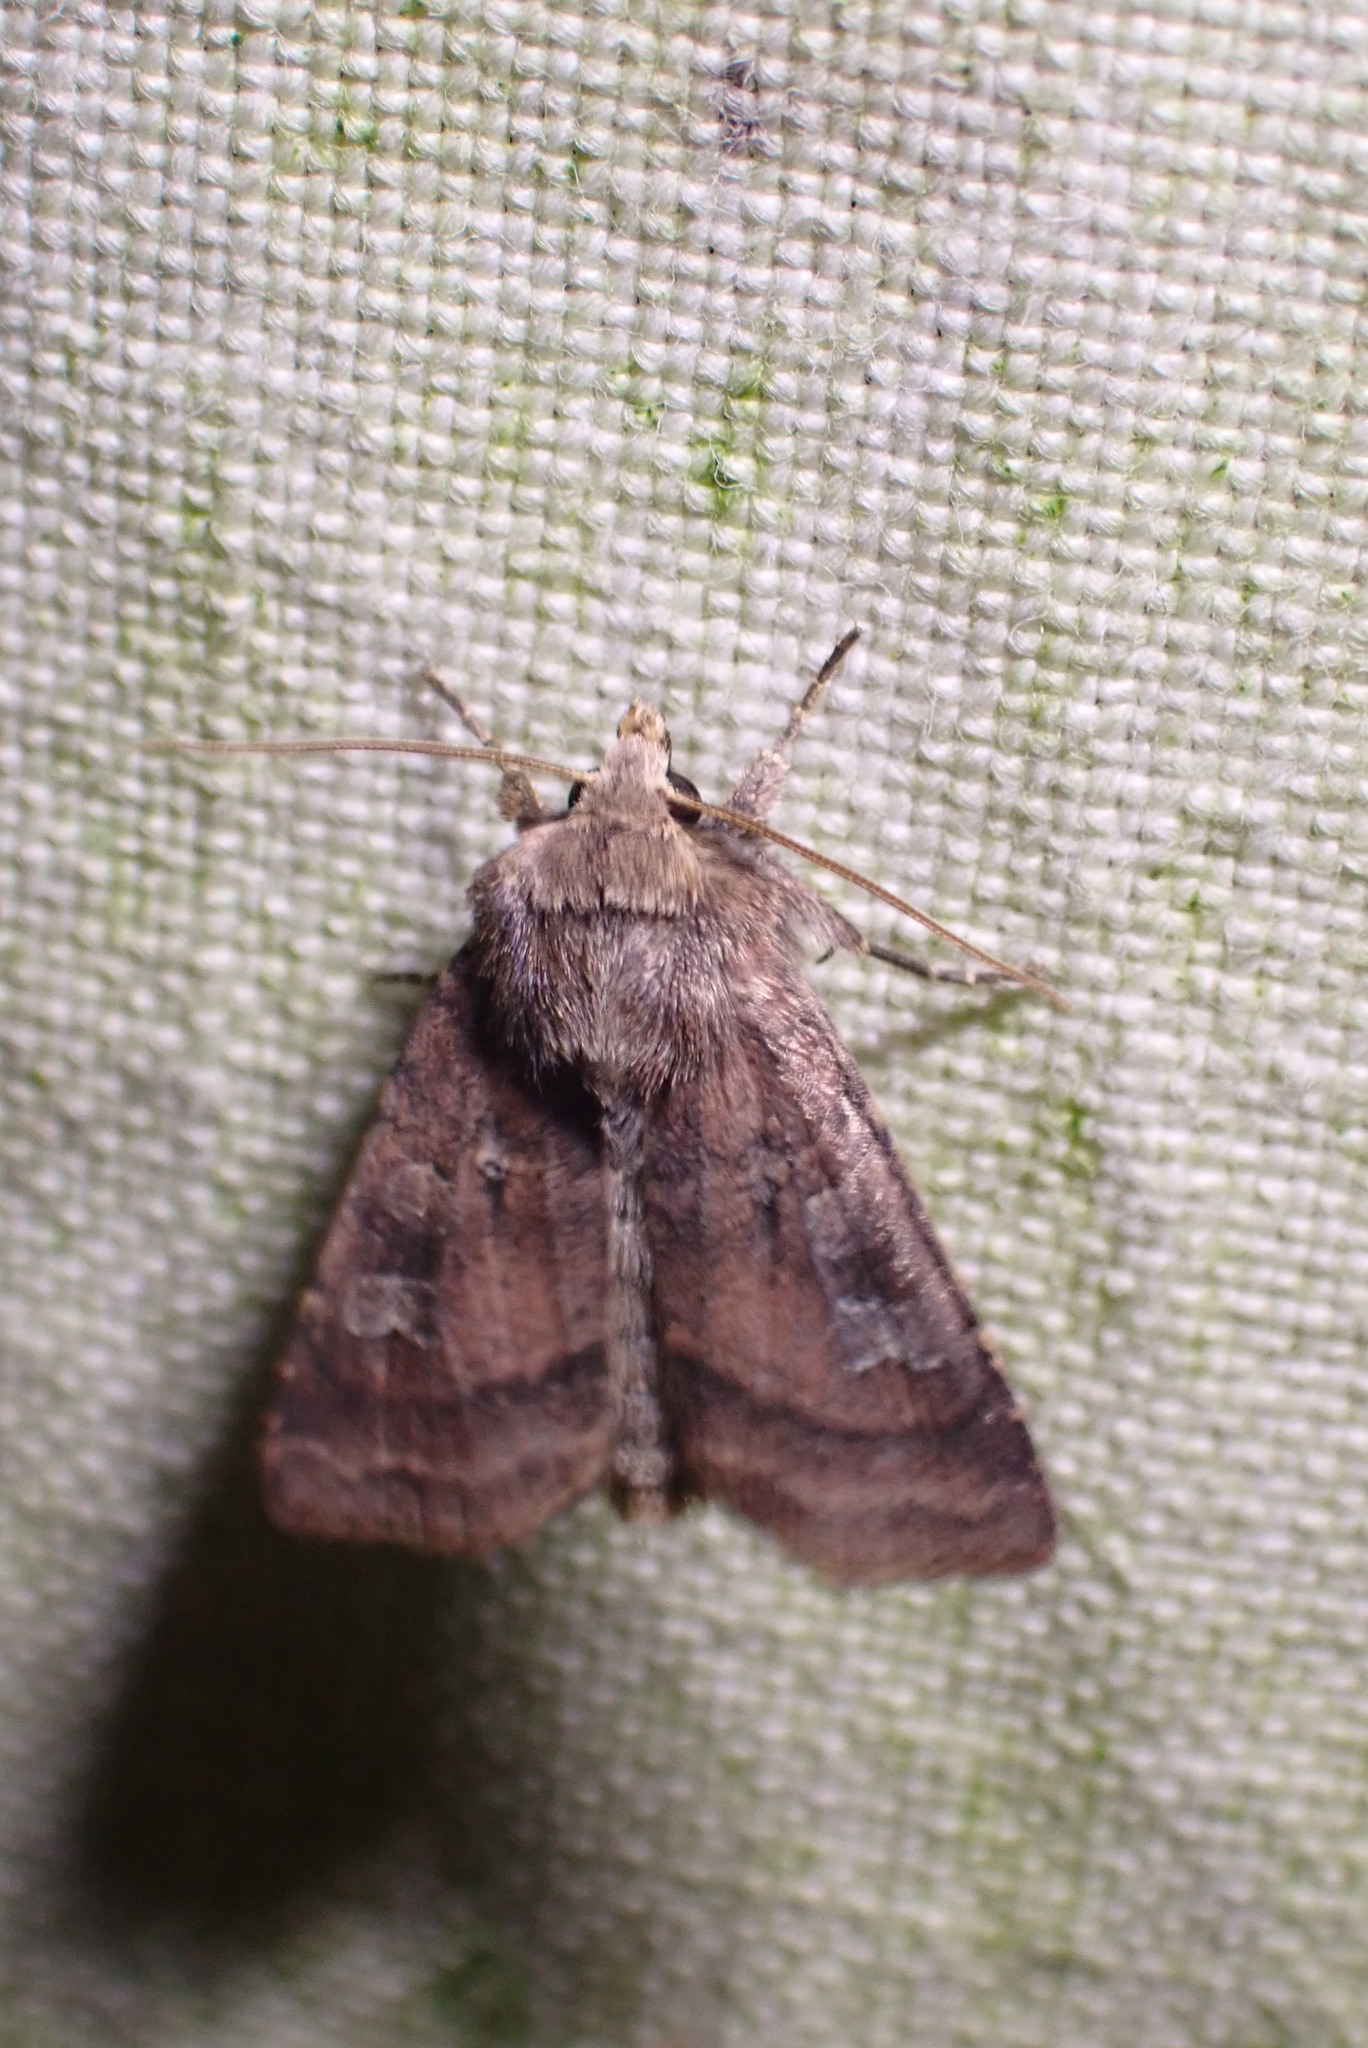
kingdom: Animalia
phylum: Arthropoda
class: Insecta
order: Lepidoptera
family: Noctuidae
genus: Diarsia
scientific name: Diarsia rubi
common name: Small square-spot
